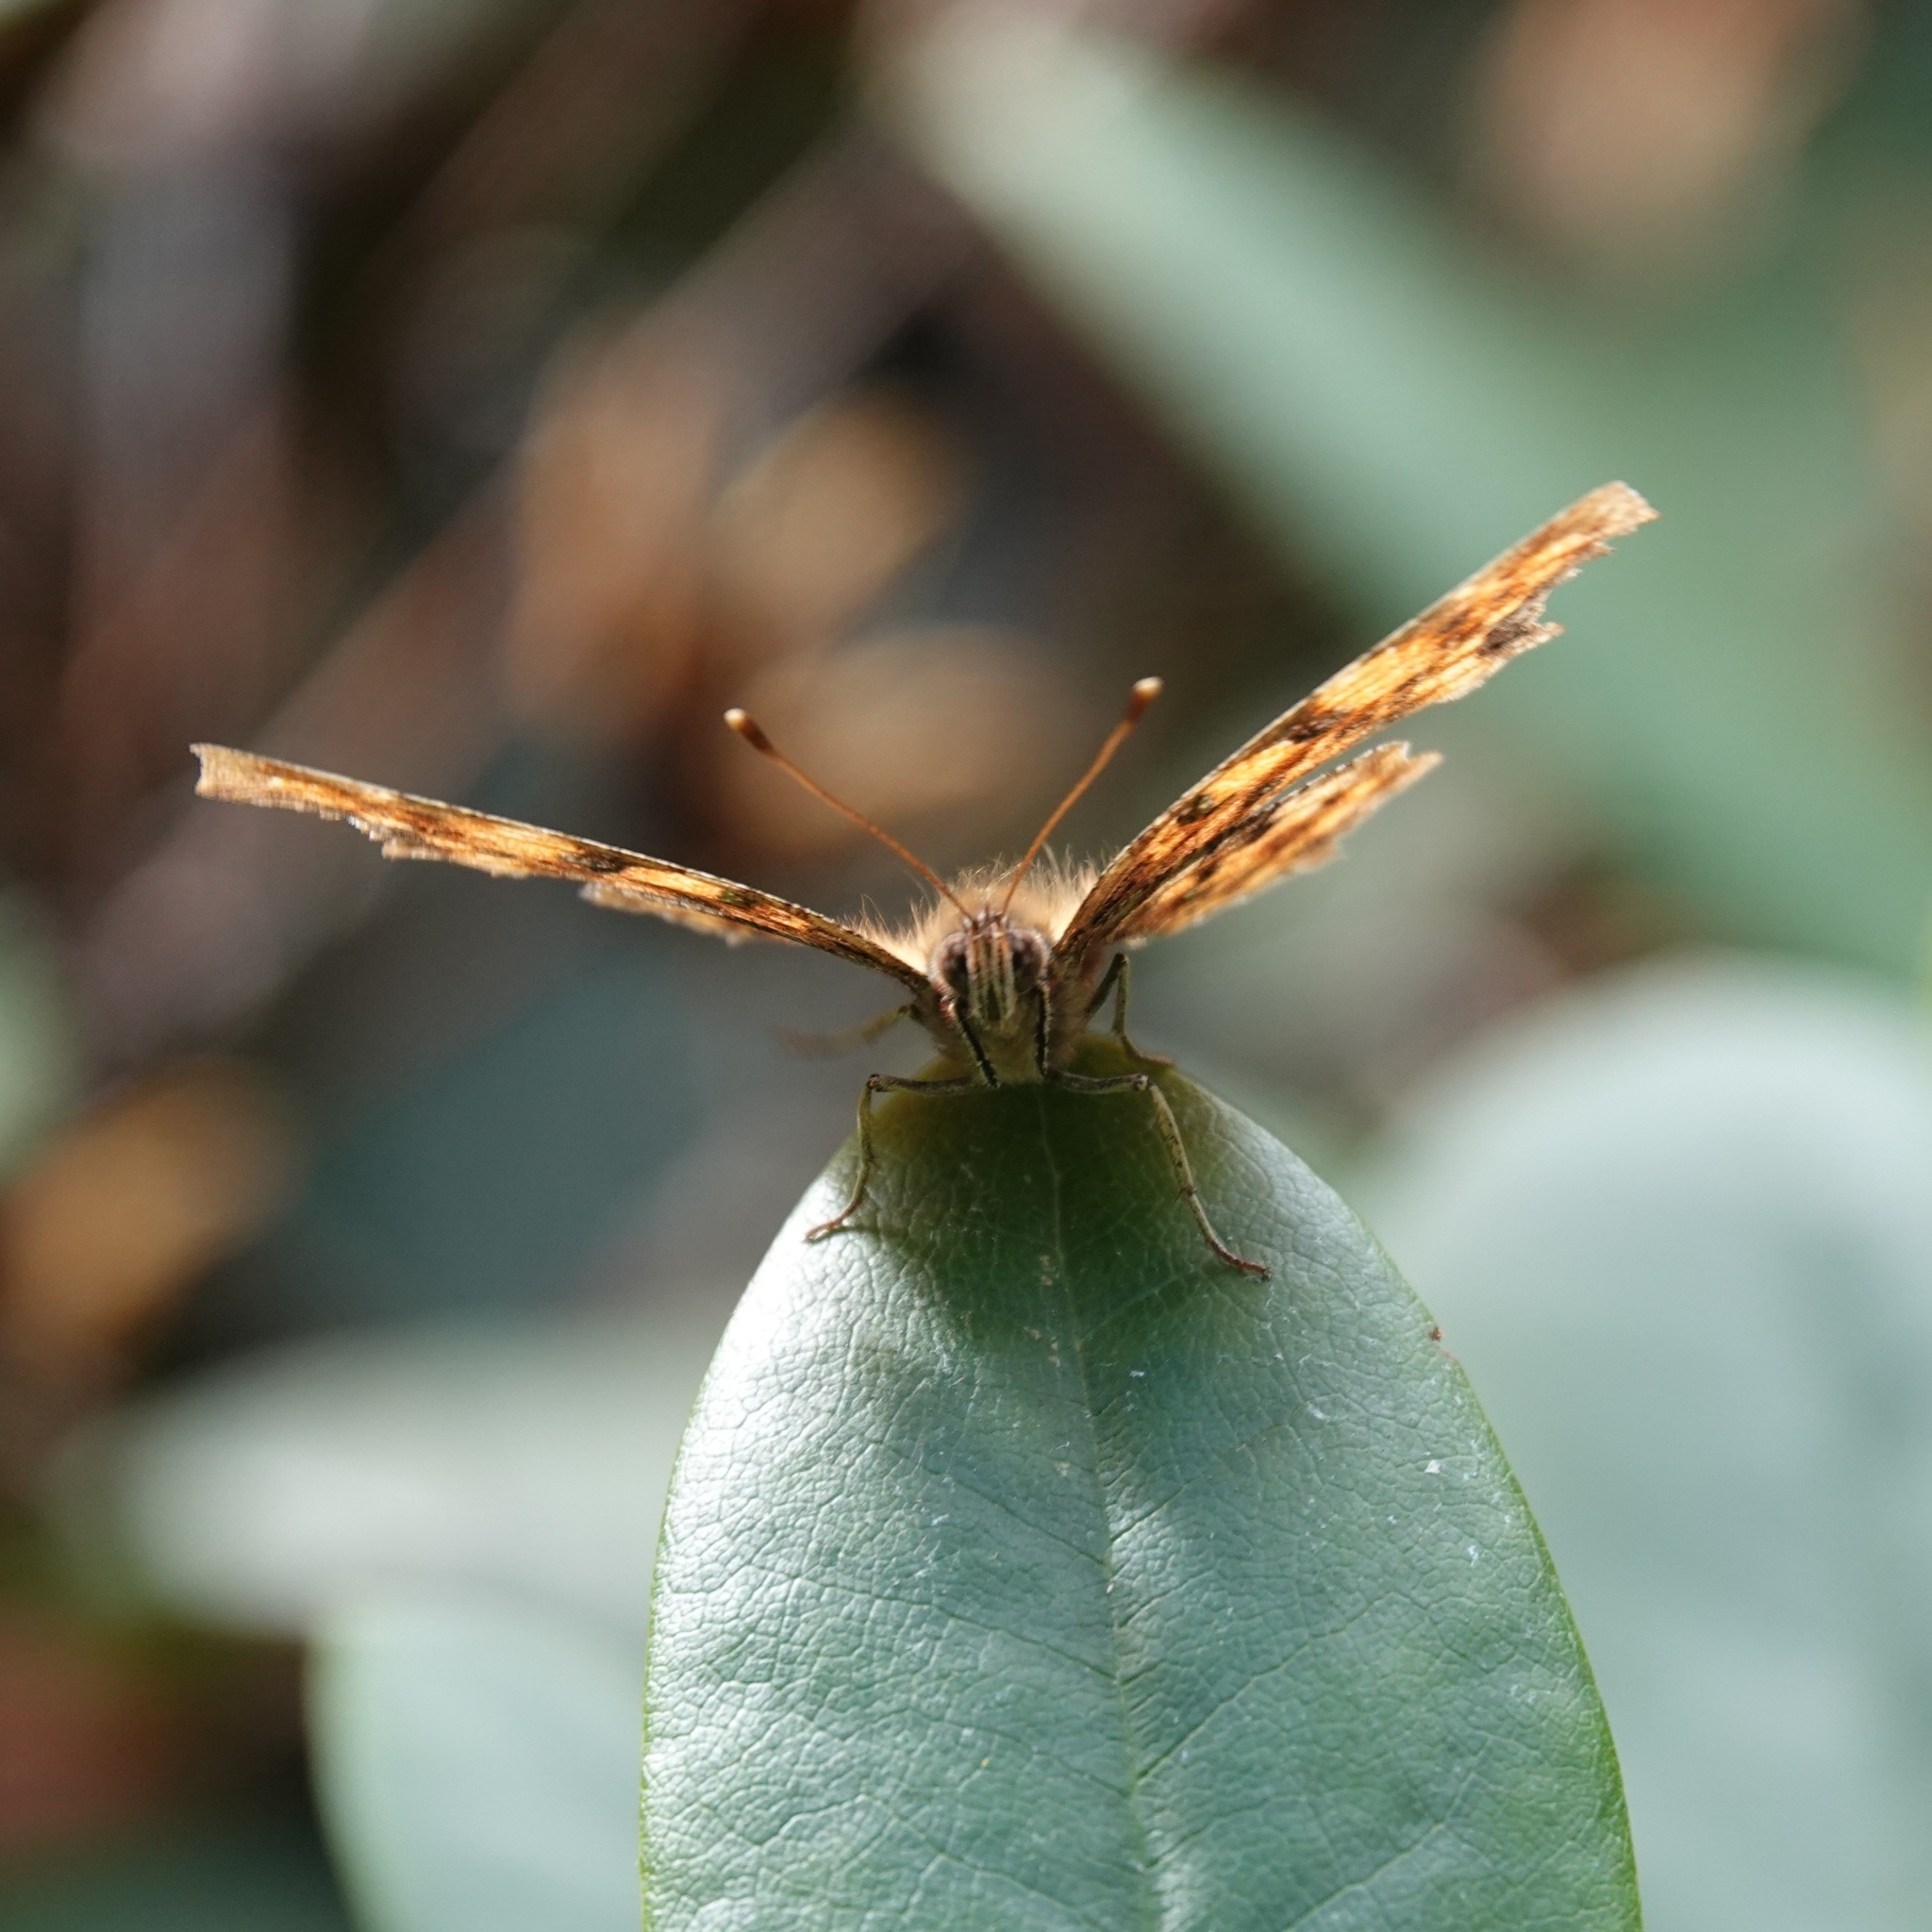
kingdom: Animalia
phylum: Arthropoda
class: Insecta
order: Lepidoptera
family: Nymphalidae
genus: Polygonia
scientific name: Polygonia c-album
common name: Comma
